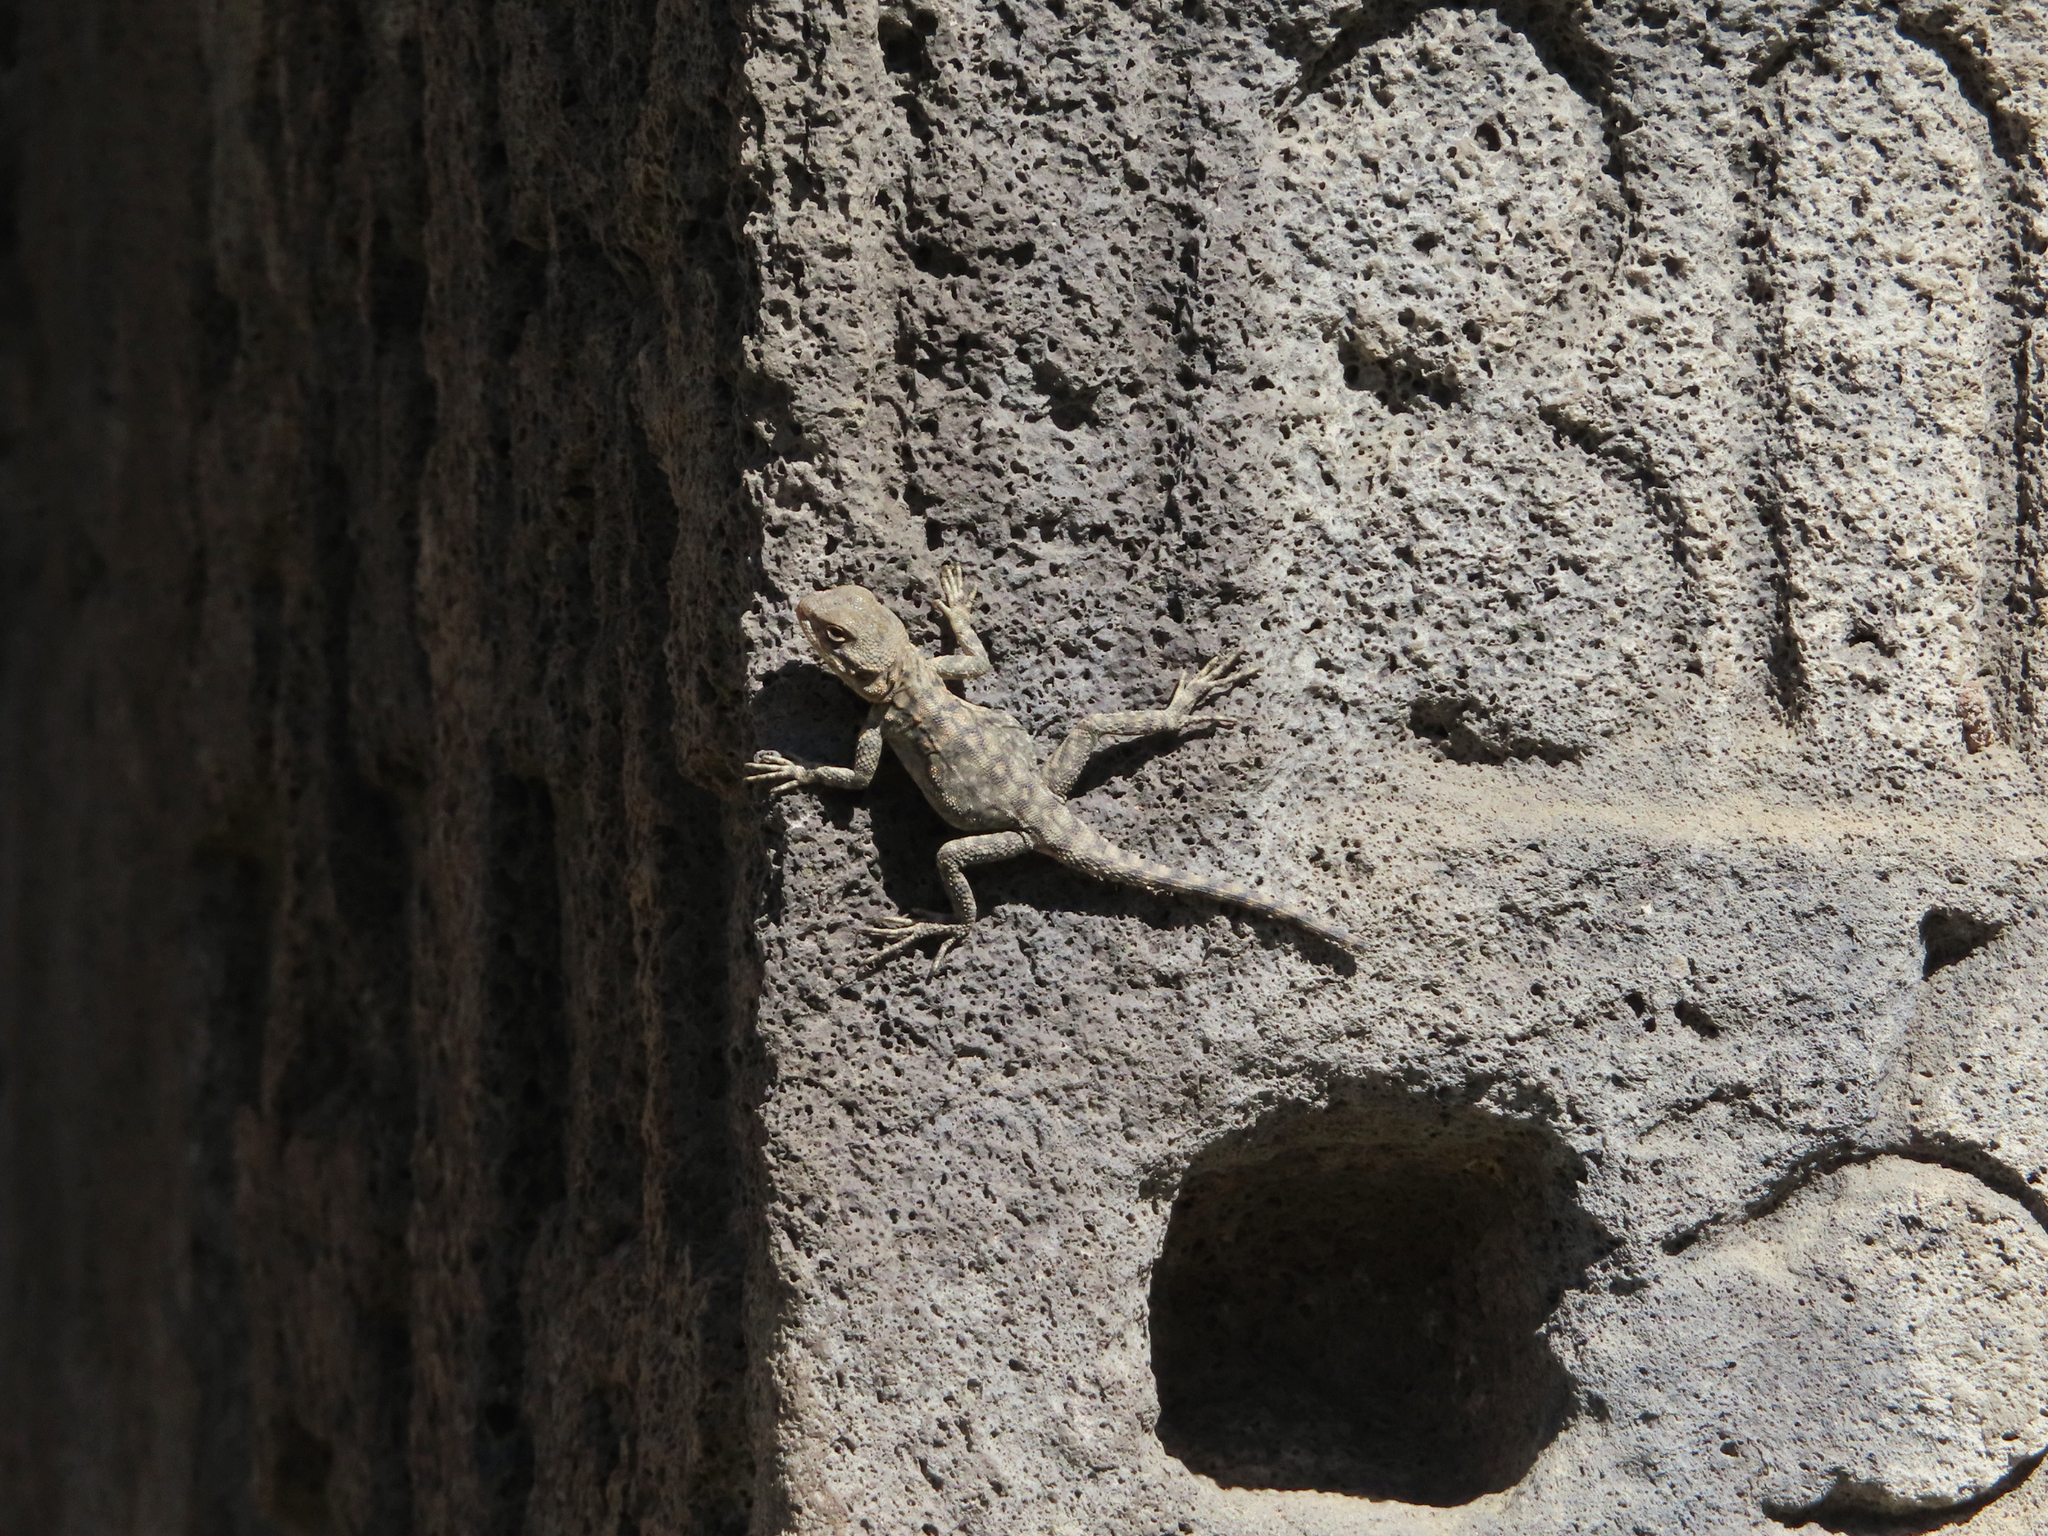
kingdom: Animalia
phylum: Chordata
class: Squamata
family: Agamidae
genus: Paralaudakia
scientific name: Paralaudakia caucasia
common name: Caucasian agama
